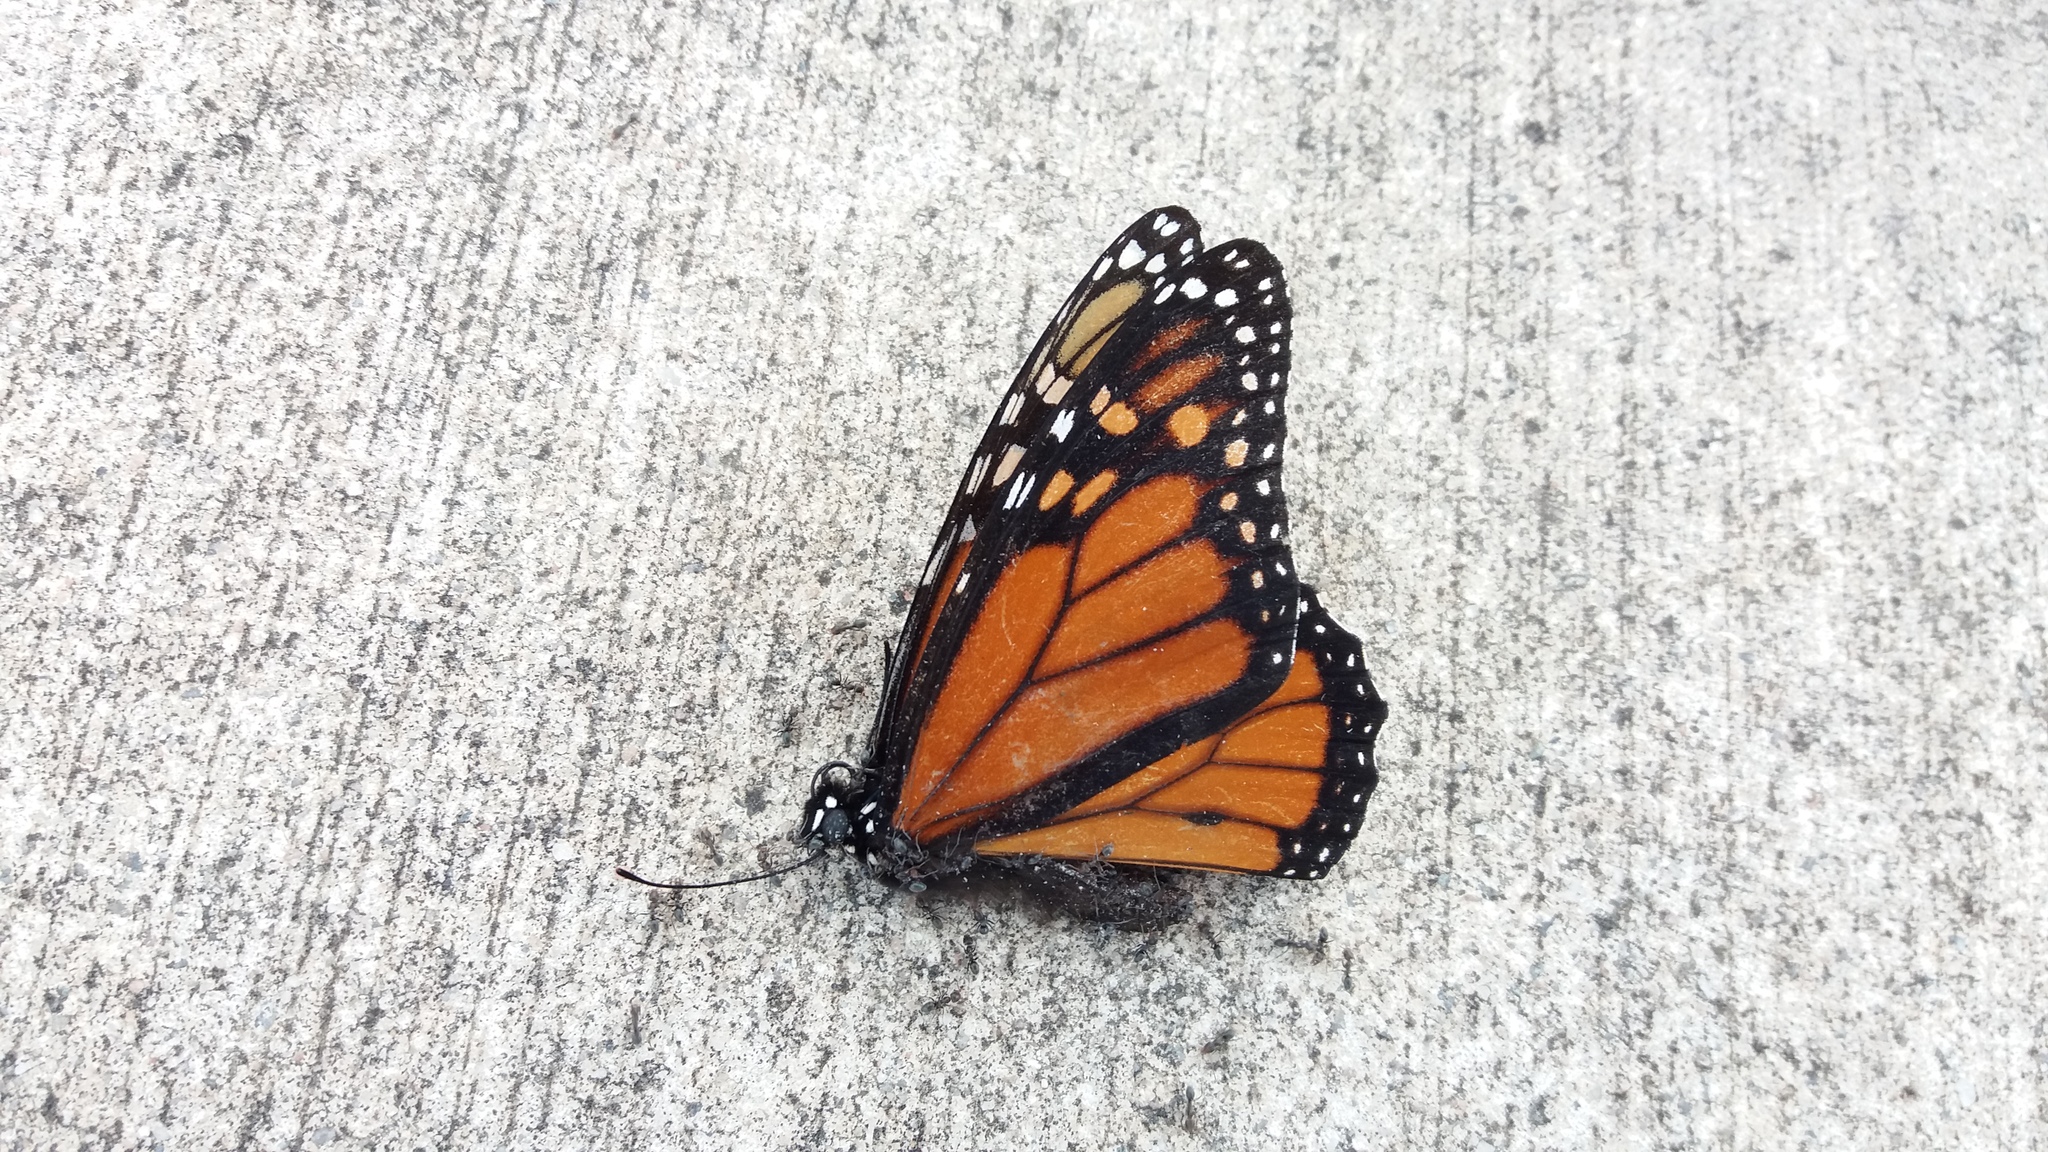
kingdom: Animalia
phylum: Arthropoda
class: Insecta
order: Lepidoptera
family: Nymphalidae
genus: Danaus
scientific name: Danaus plexippus
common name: Monarch
